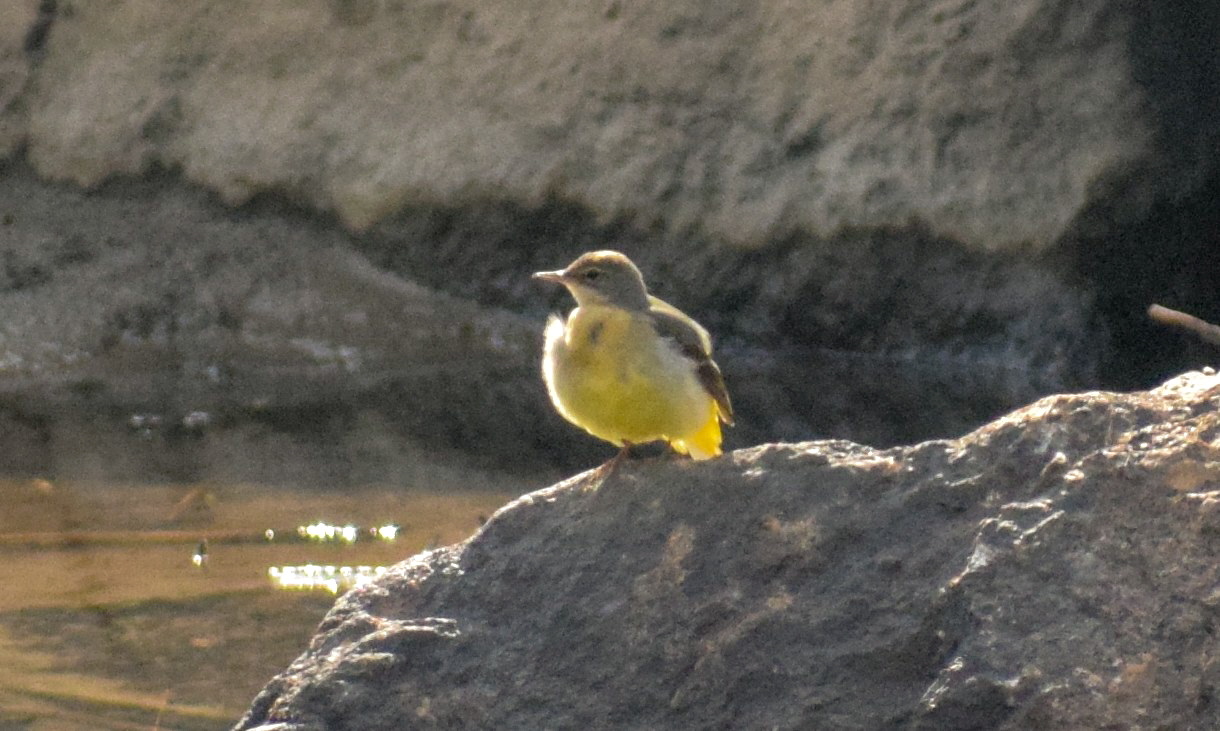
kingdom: Animalia
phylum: Chordata
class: Aves
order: Passeriformes
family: Motacillidae
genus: Motacilla
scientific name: Motacilla cinerea
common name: Grey wagtail
